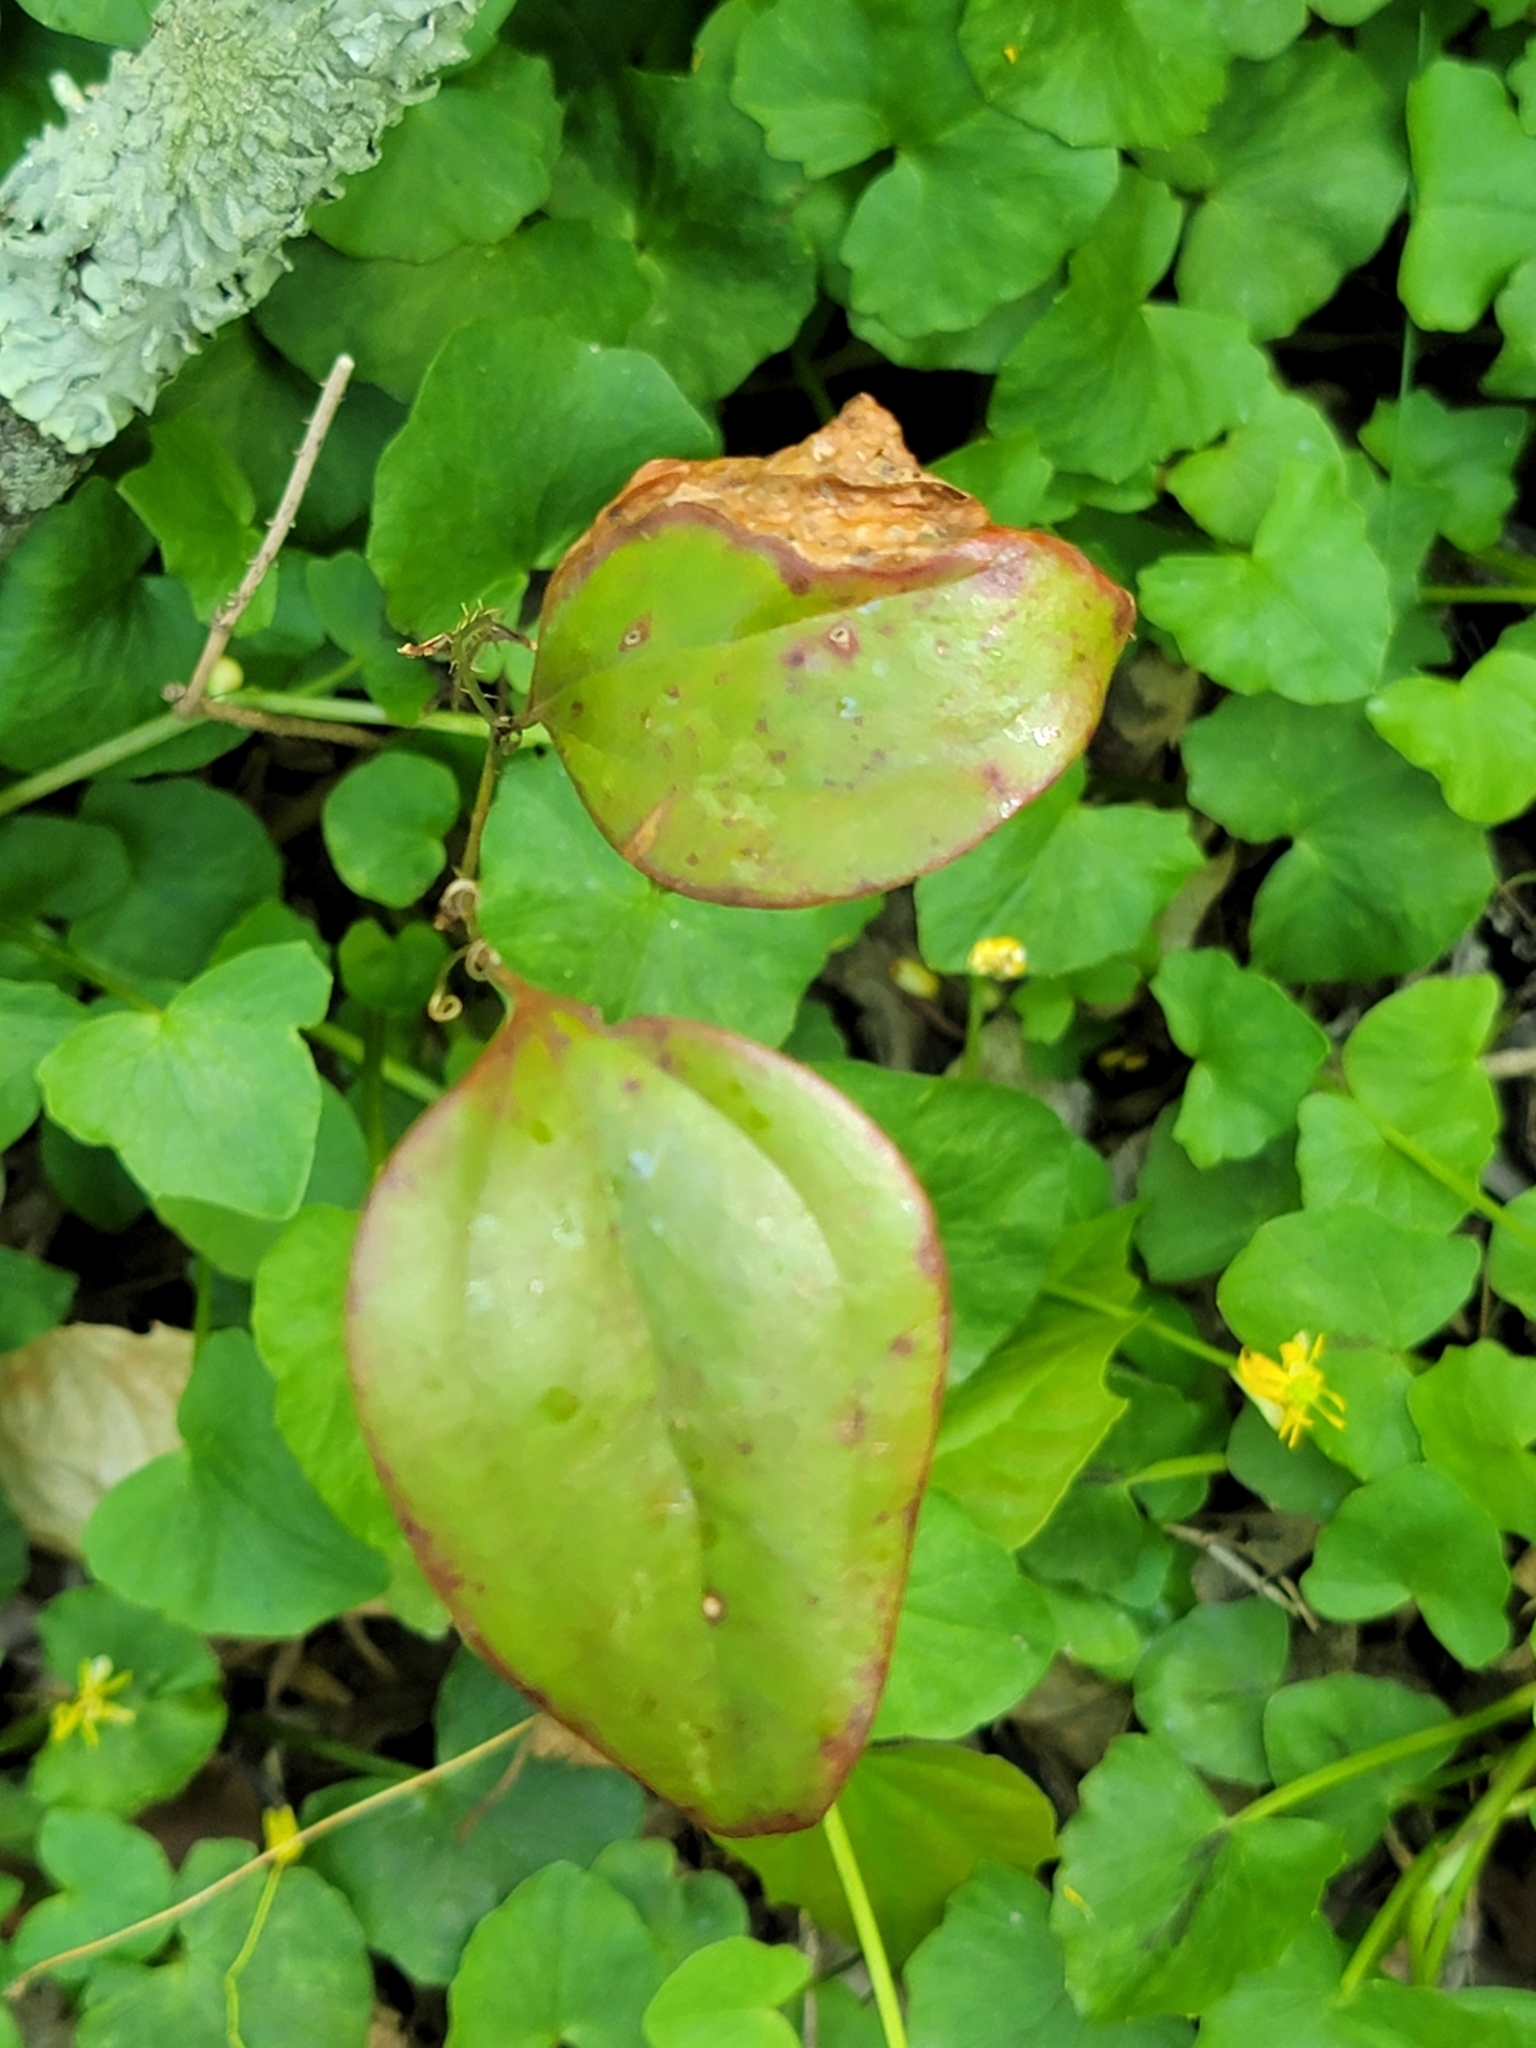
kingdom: Plantae
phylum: Tracheophyta
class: Liliopsida
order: Liliales
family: Smilacaceae
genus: Smilax
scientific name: Smilax glauca
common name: Cat greenbrier
